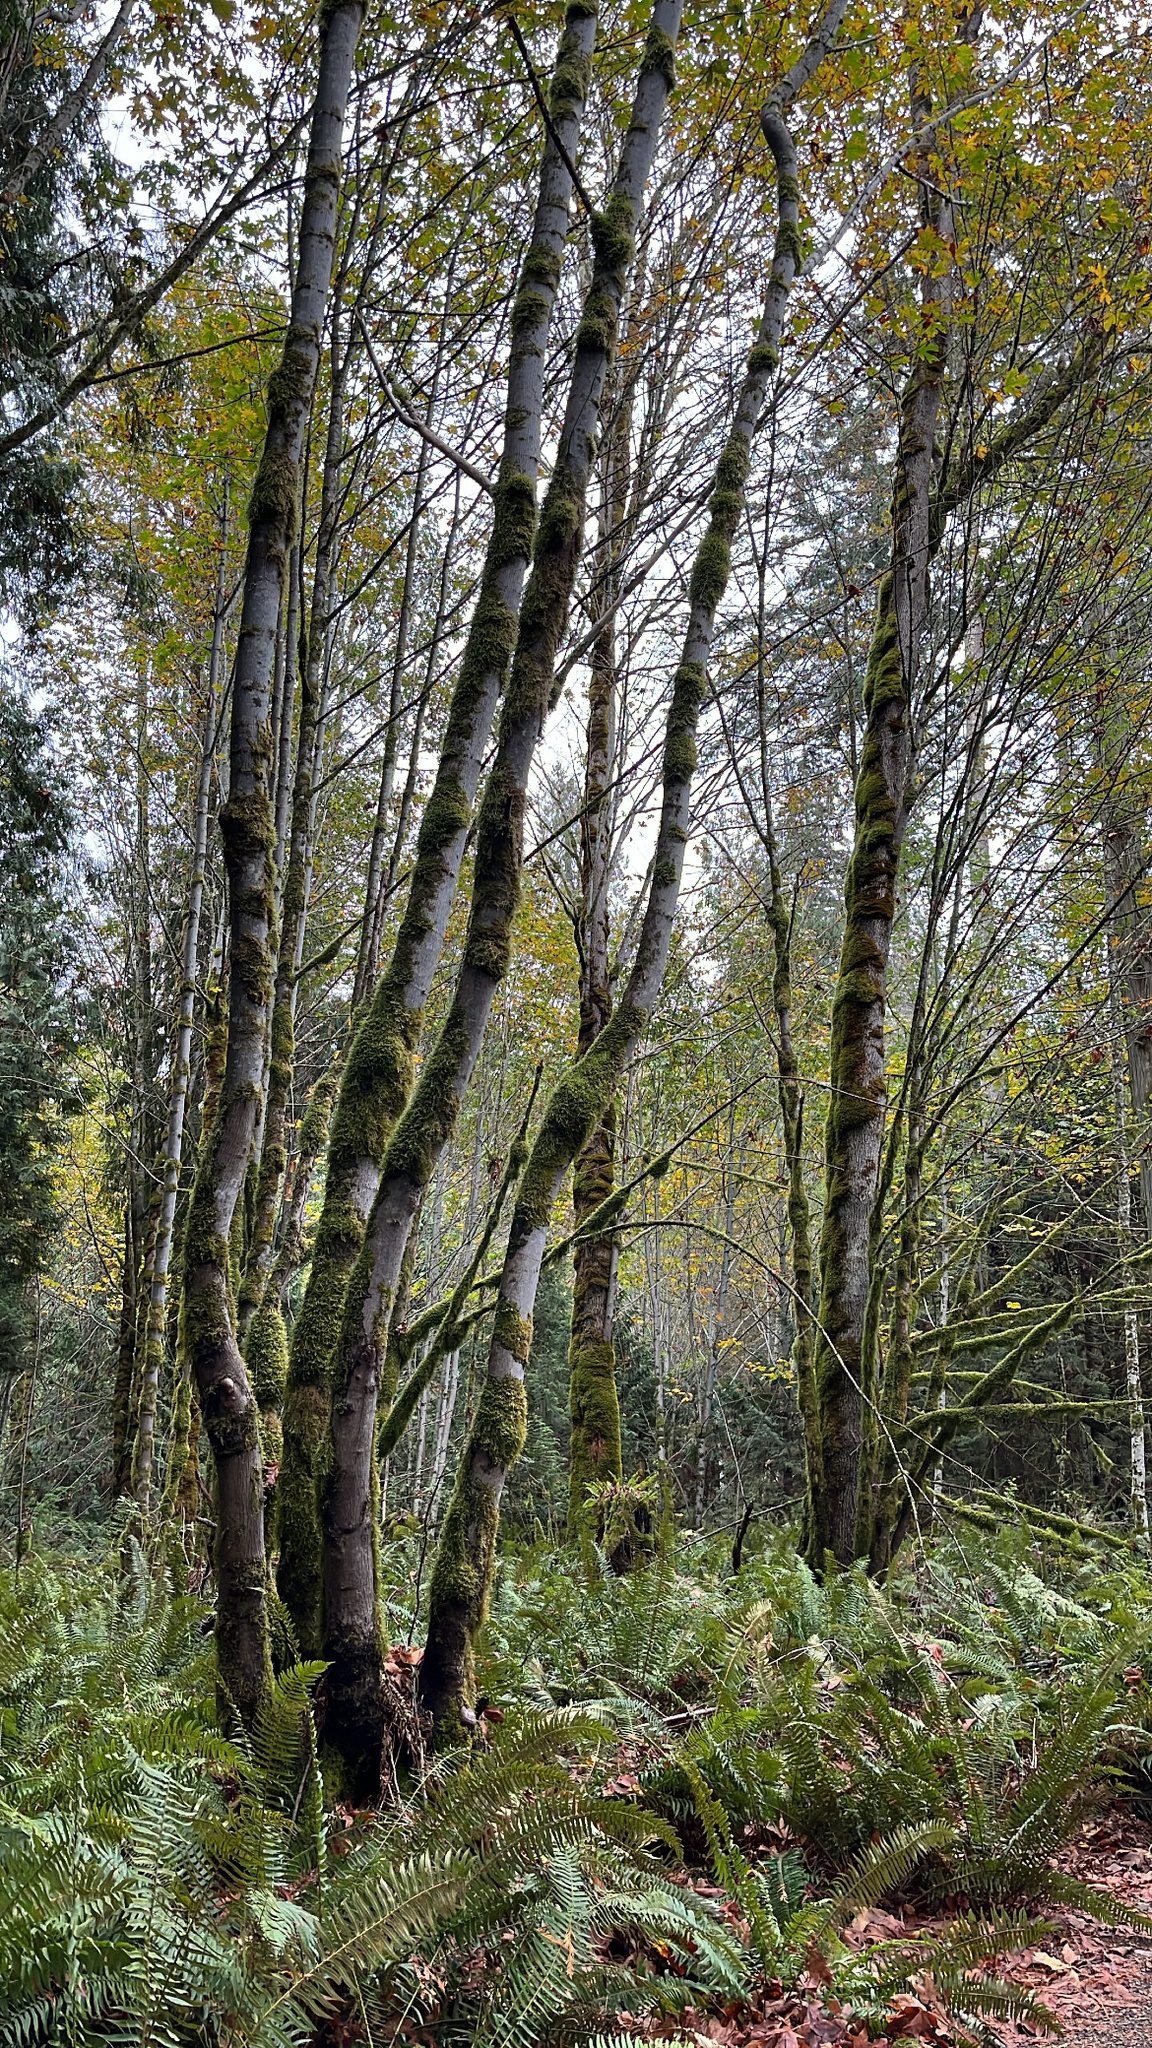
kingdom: Plantae
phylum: Tracheophyta
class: Magnoliopsida
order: Fagales
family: Betulaceae
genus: Alnus
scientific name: Alnus rubra
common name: Red alder
